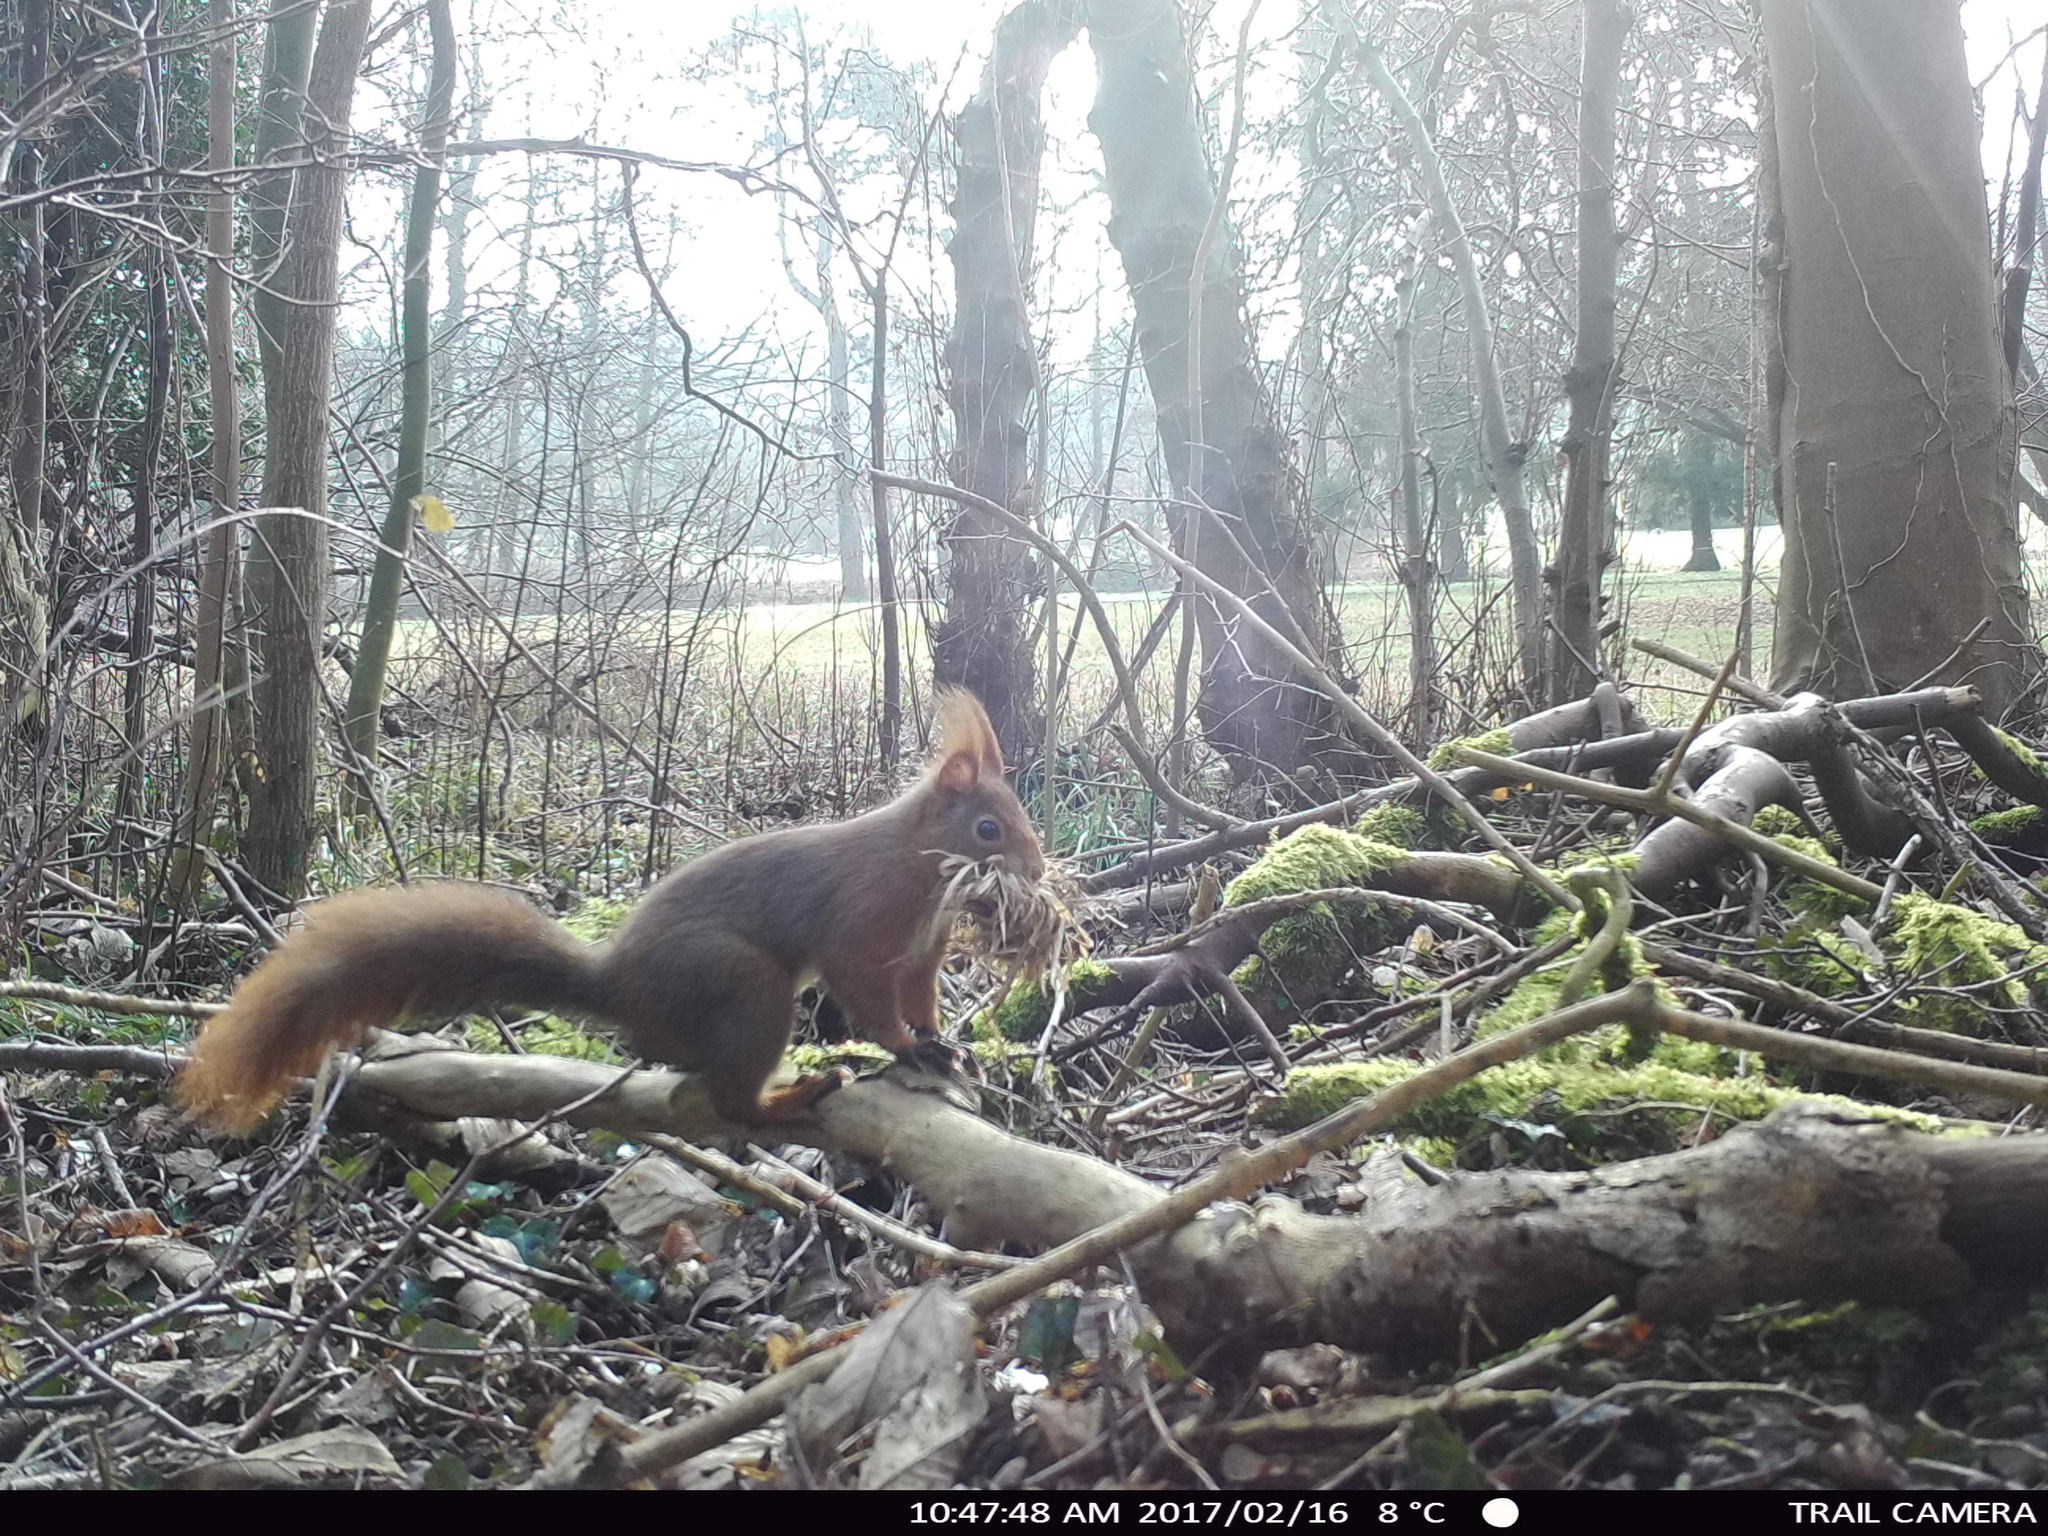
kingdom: Animalia
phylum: Chordata
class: Mammalia
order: Rodentia
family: Sciuridae
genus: Sciurus
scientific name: Sciurus vulgaris
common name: Eurasian red squirrel
